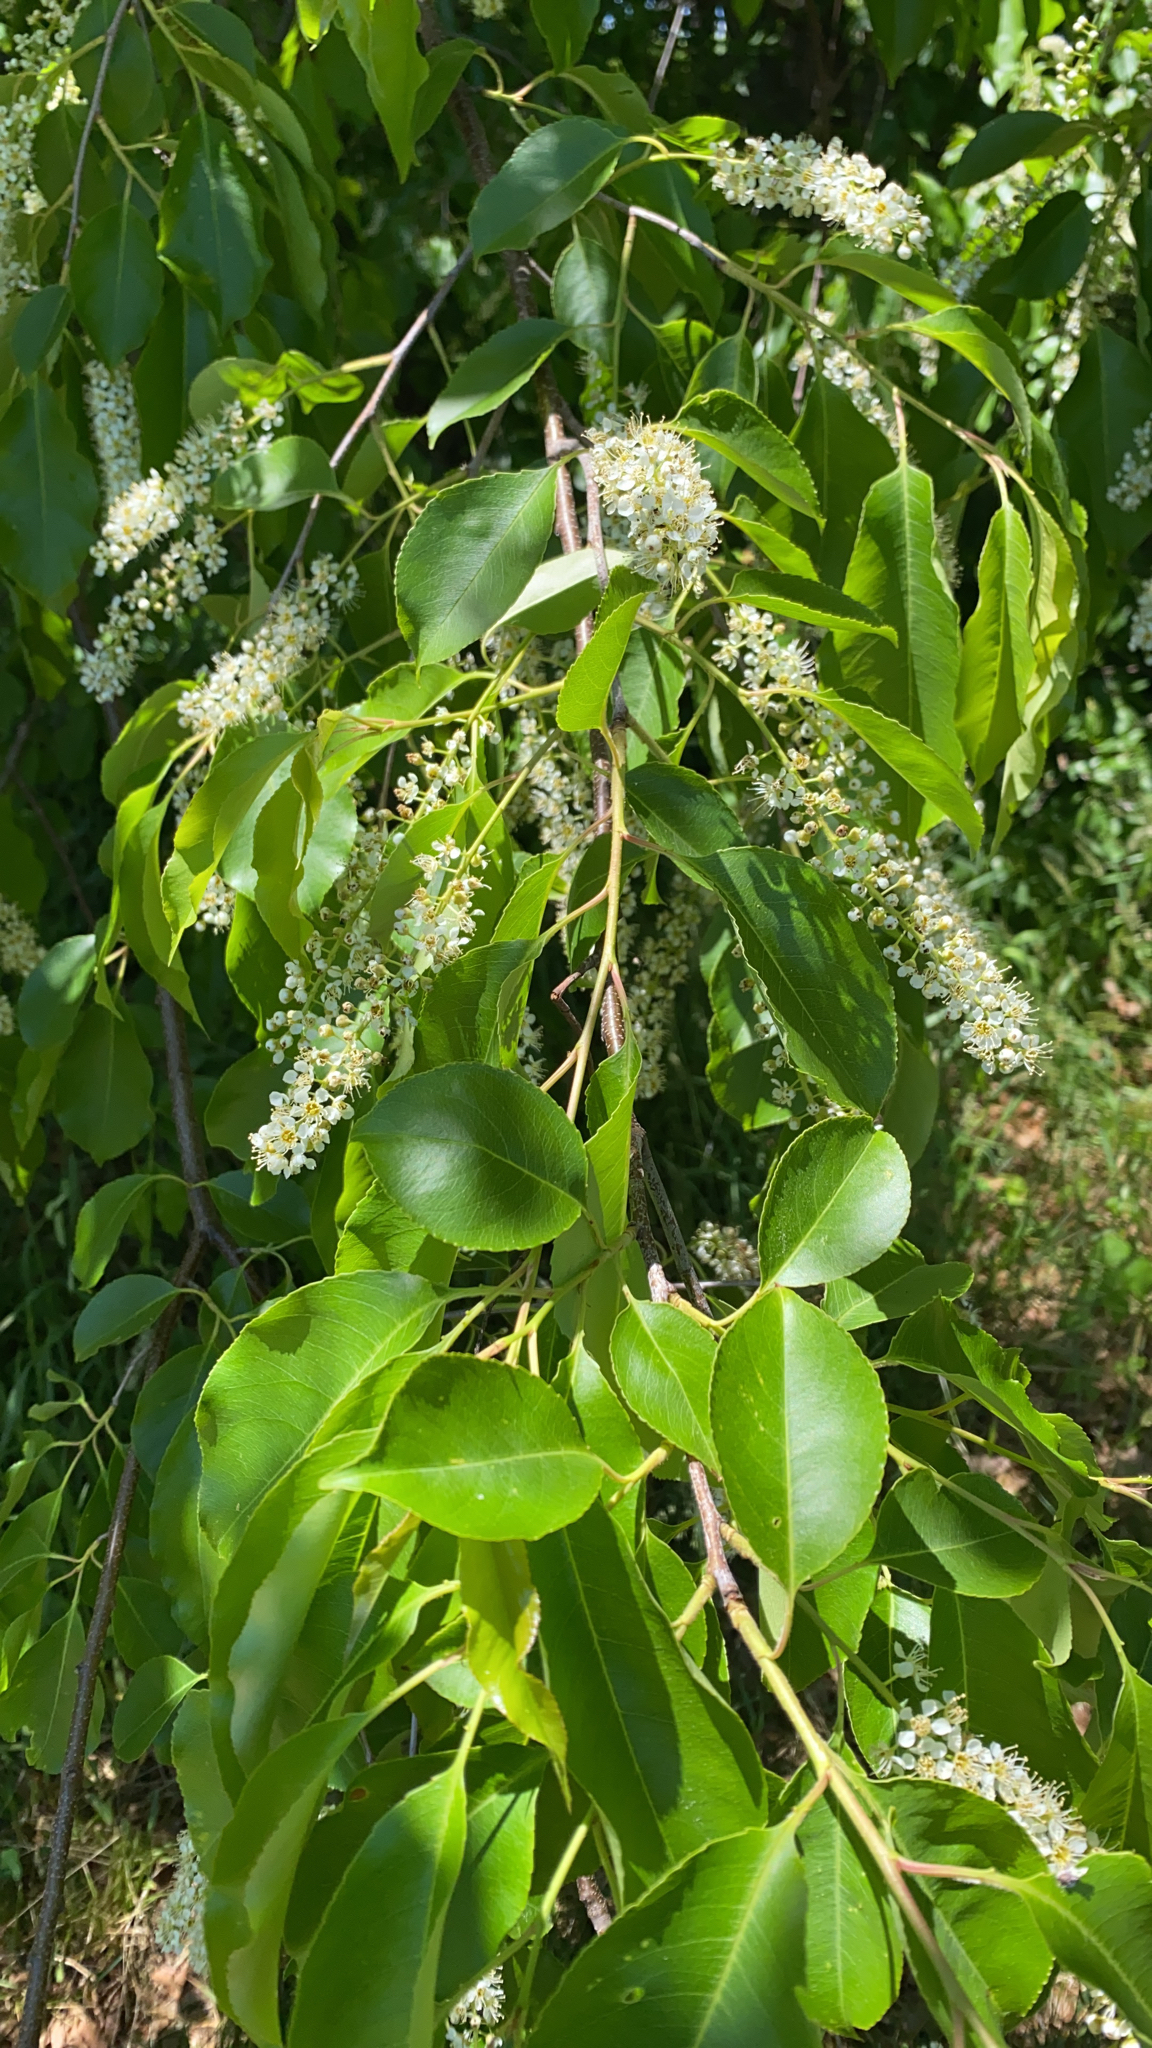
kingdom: Plantae
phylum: Tracheophyta
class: Magnoliopsida
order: Rosales
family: Rosaceae
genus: Prunus
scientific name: Prunus serotina
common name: Black cherry
